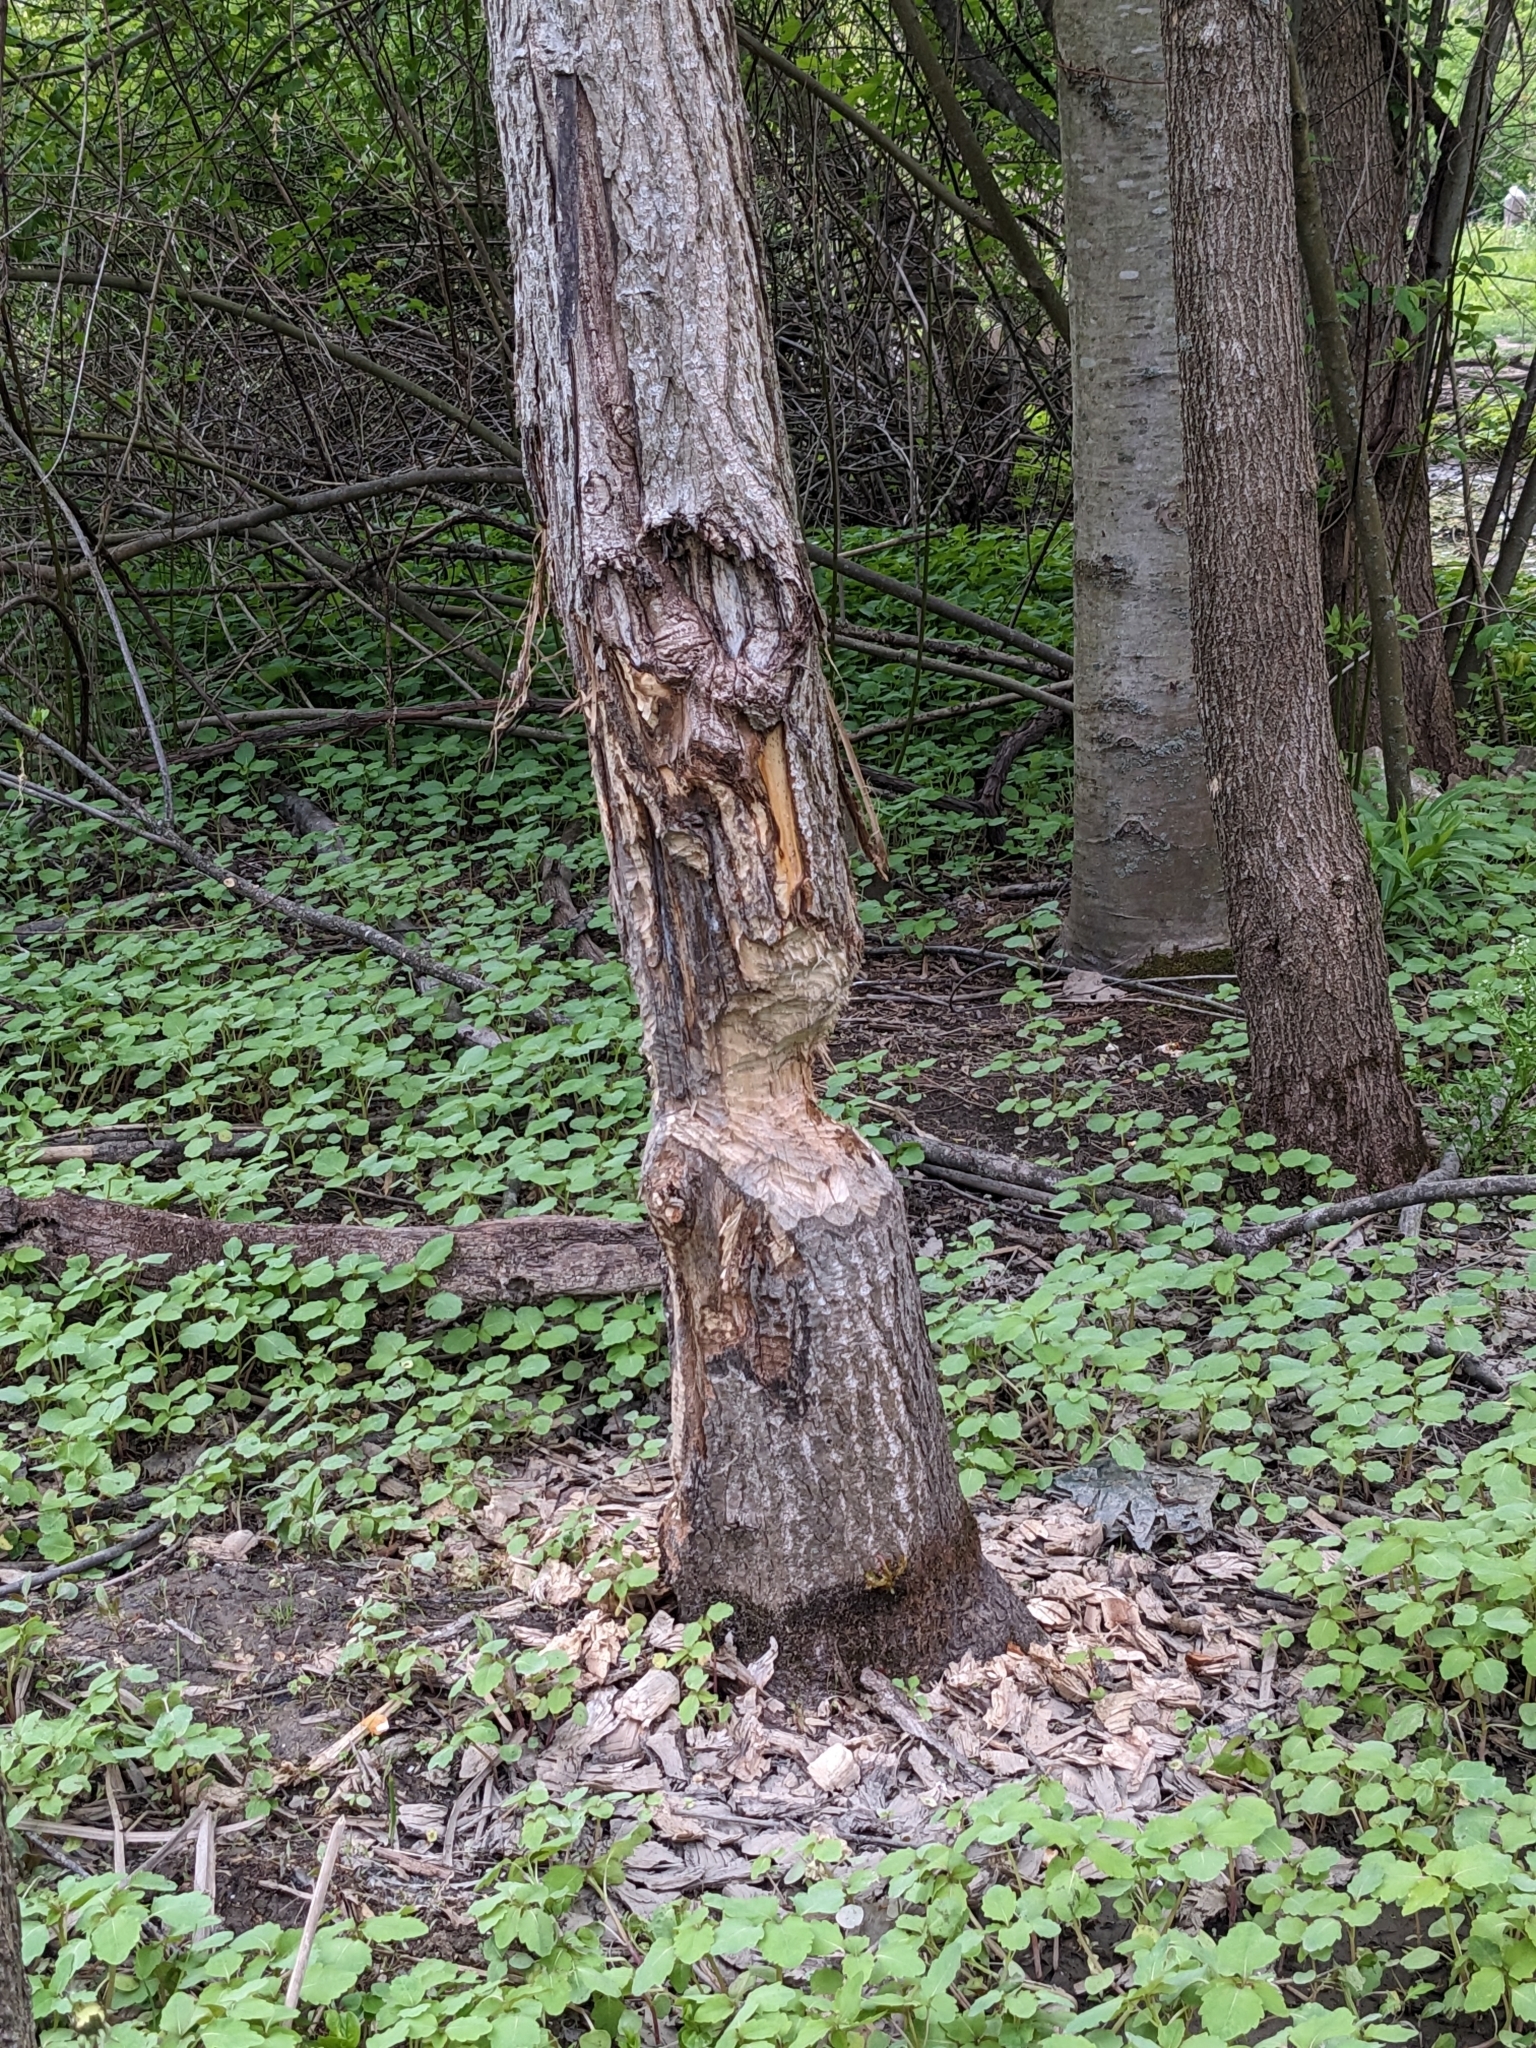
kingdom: Animalia
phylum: Chordata
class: Mammalia
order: Rodentia
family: Castoridae
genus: Castor
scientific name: Castor canadensis
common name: American beaver
